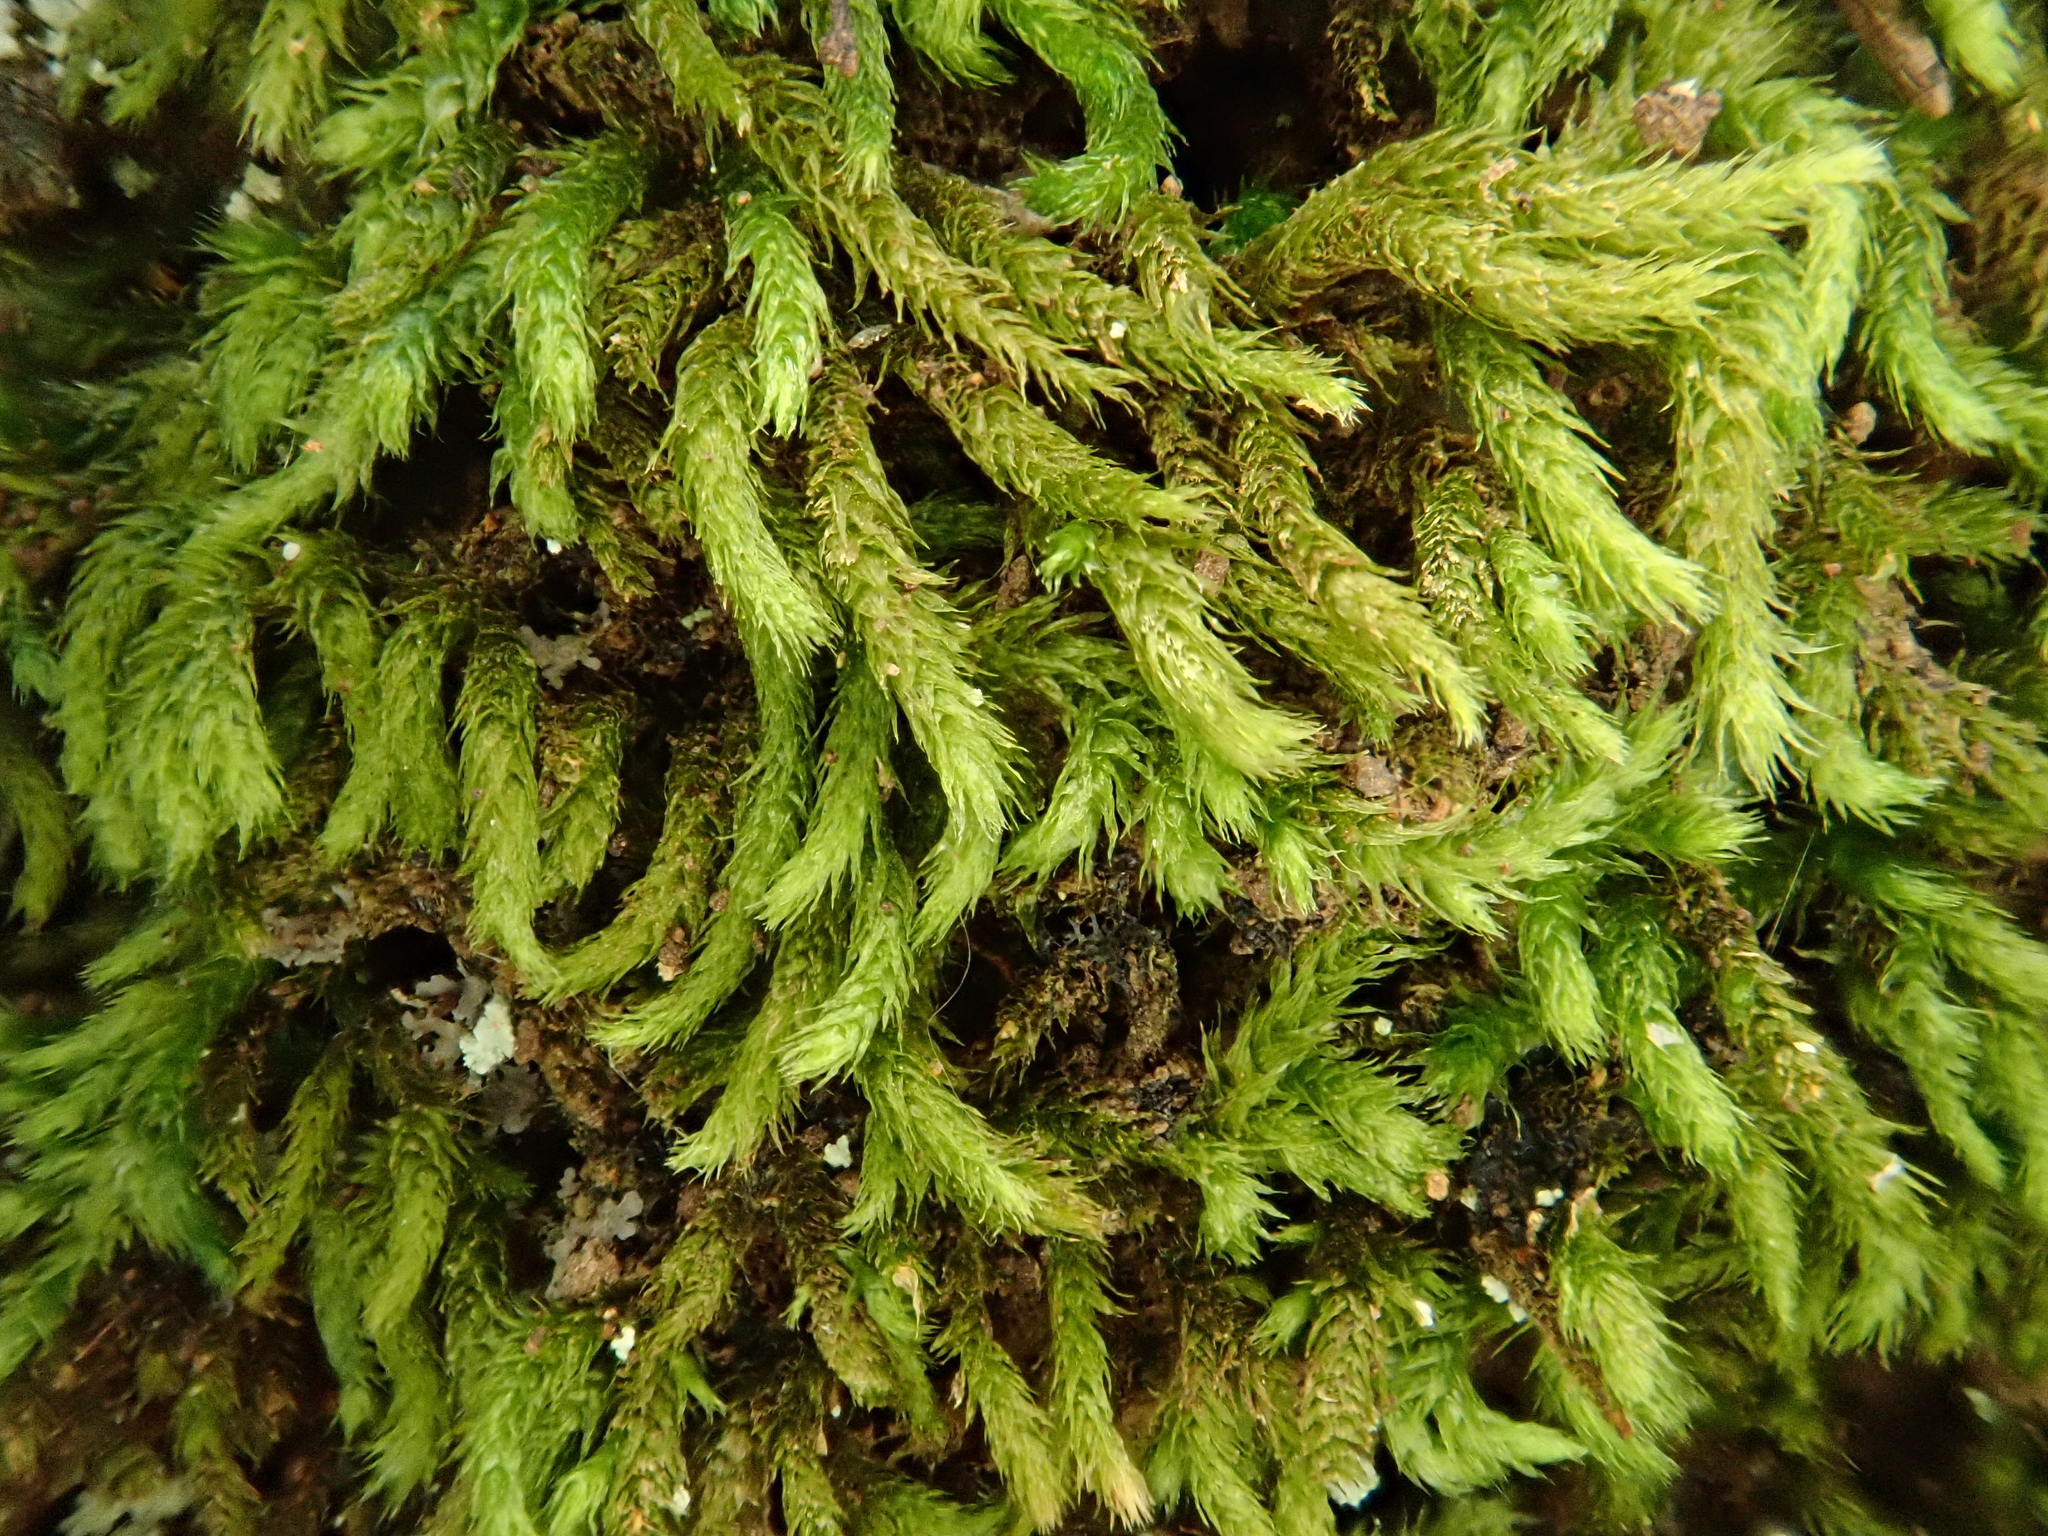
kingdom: Plantae
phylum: Bryophyta
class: Bryopsida
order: Hypnales
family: Brachytheciaceae
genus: Plasteurhynchium
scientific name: Plasteurhynchium meridionale
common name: Portland feather-moss
